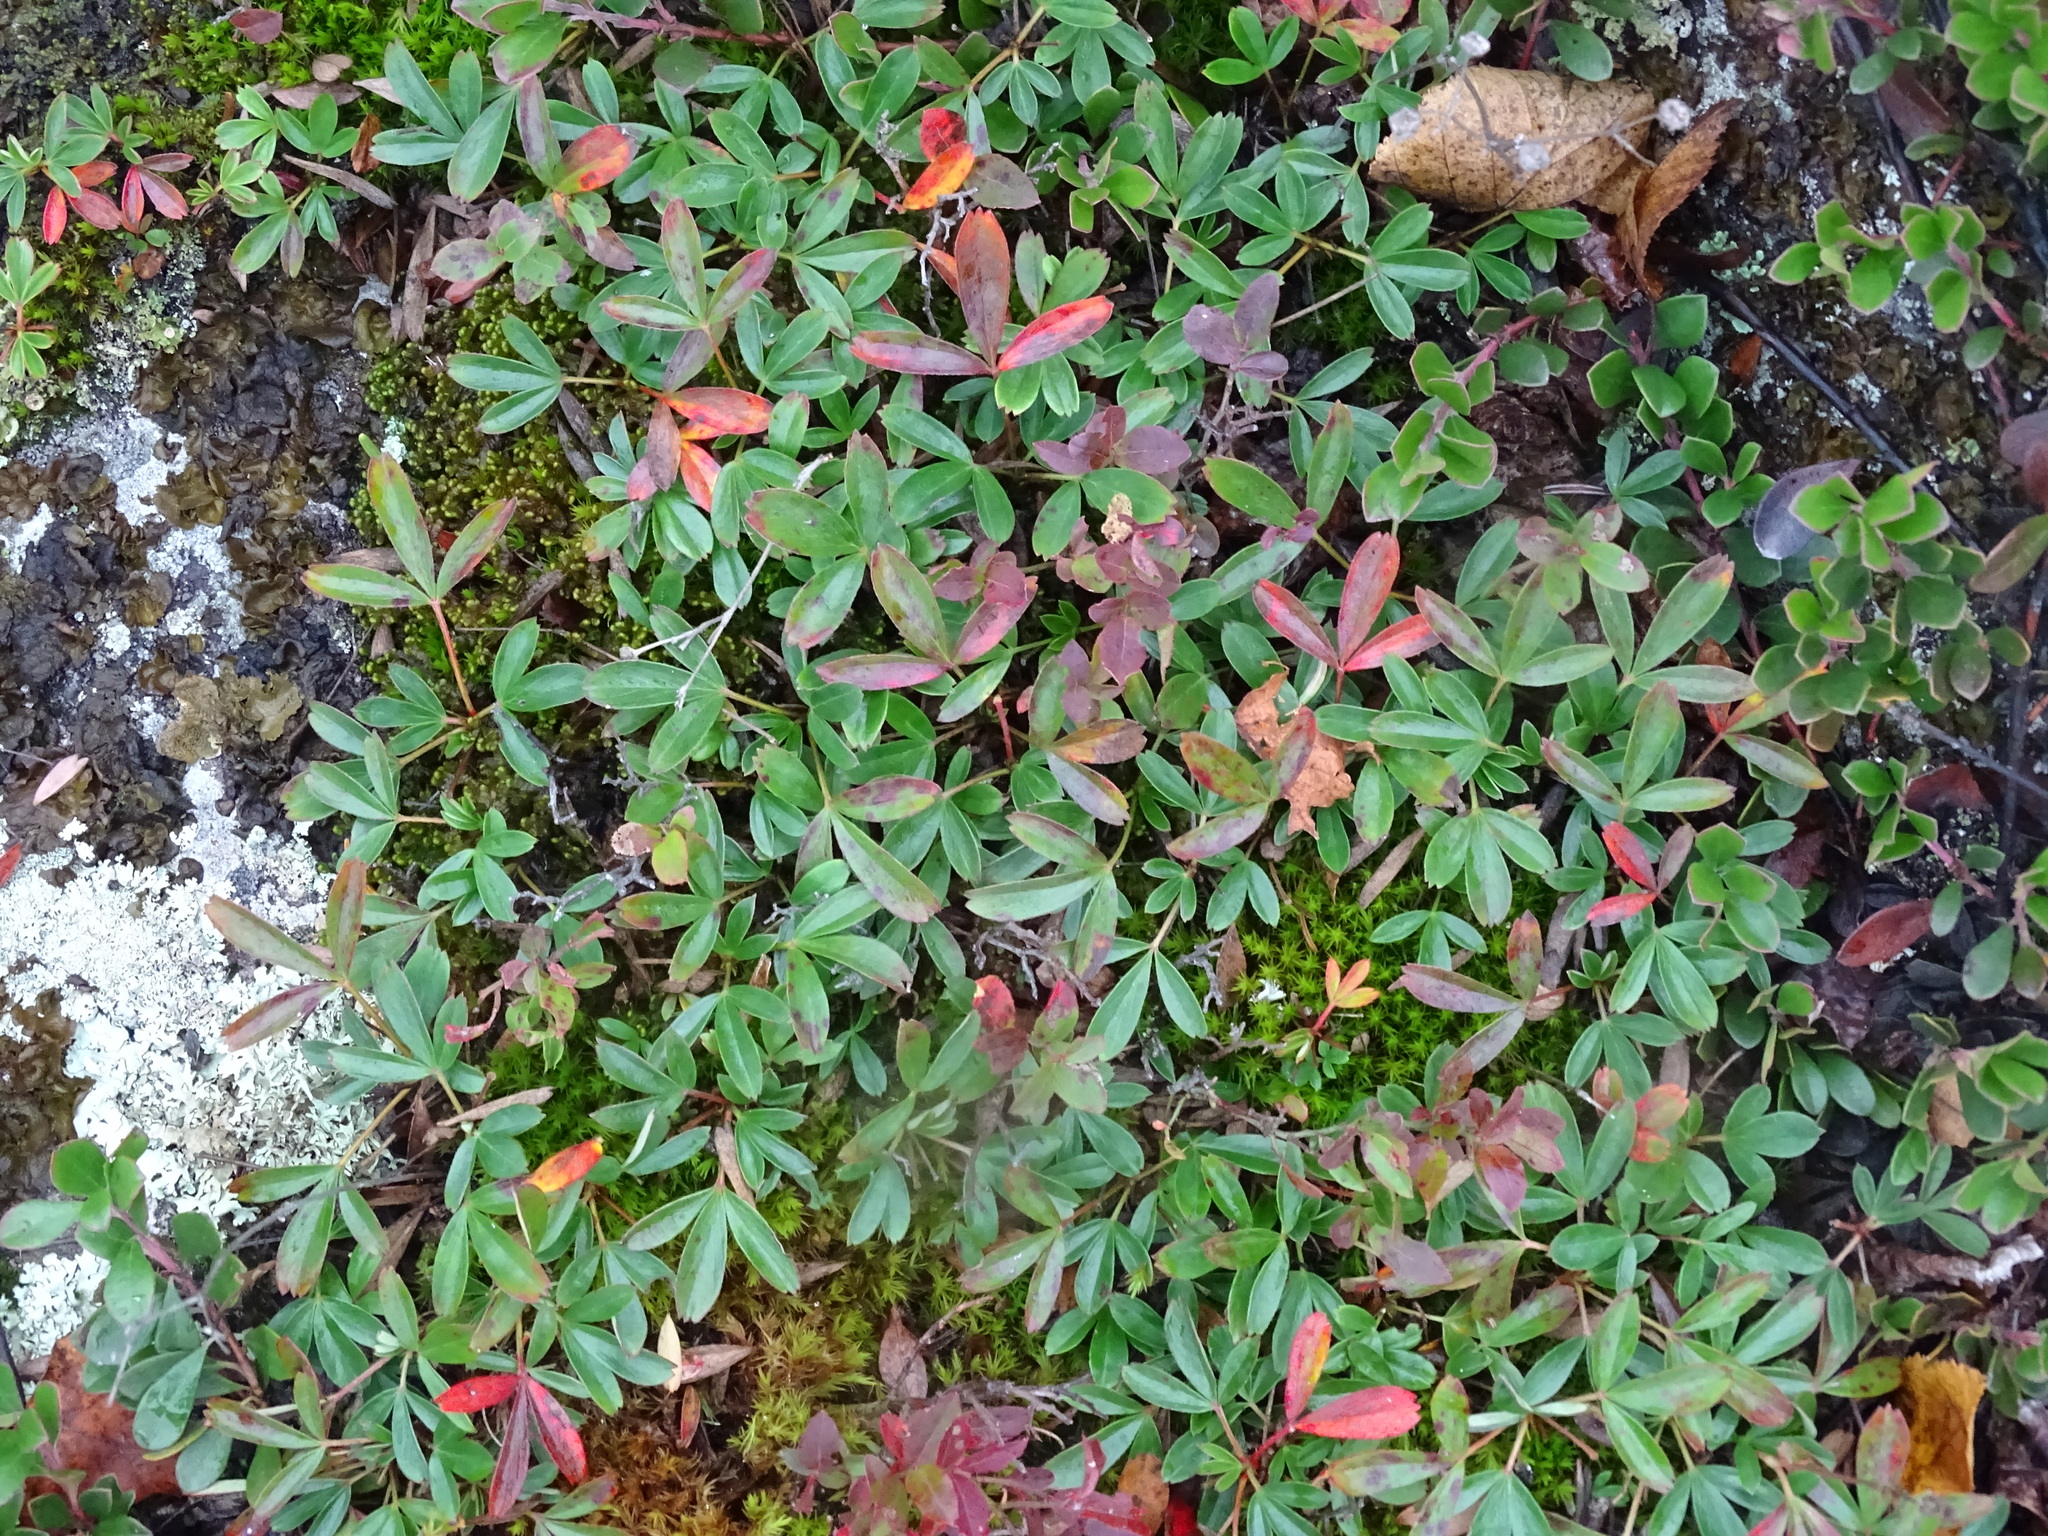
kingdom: Plantae
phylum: Tracheophyta
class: Magnoliopsida
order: Rosales
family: Rosaceae
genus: Sibbaldia
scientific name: Sibbaldia tridentata
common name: Three-toothed cinquefoil
